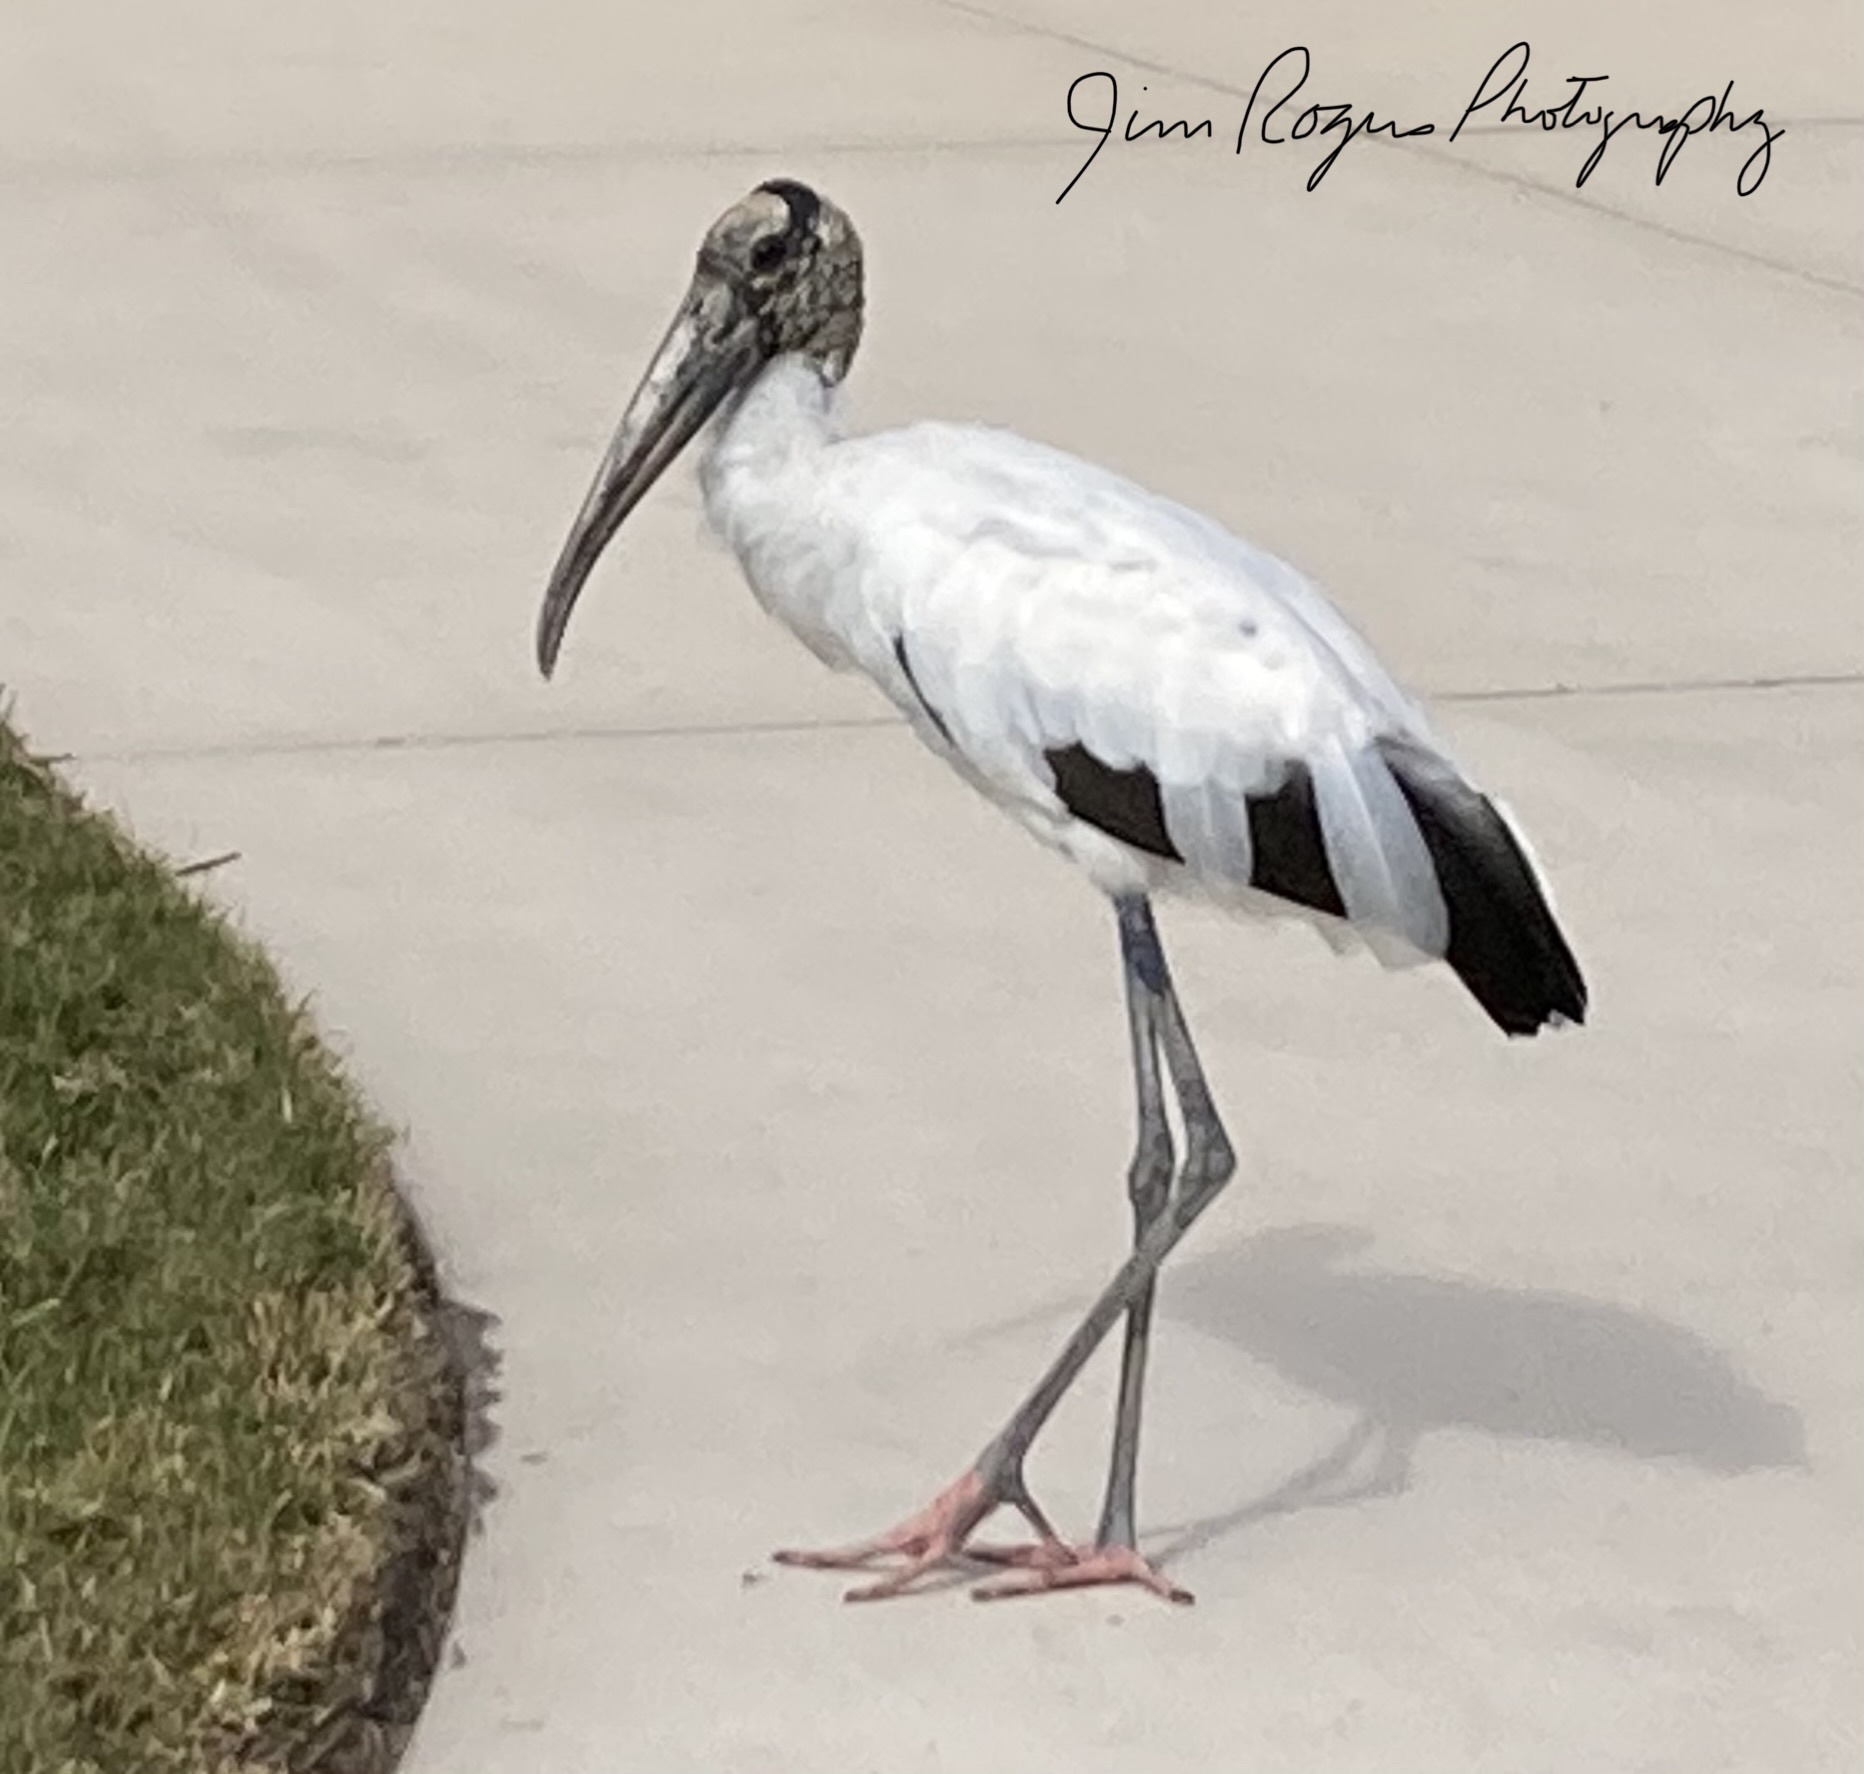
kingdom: Animalia
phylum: Chordata
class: Aves
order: Ciconiiformes
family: Ciconiidae
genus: Mycteria
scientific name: Mycteria americana
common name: Wood stork
